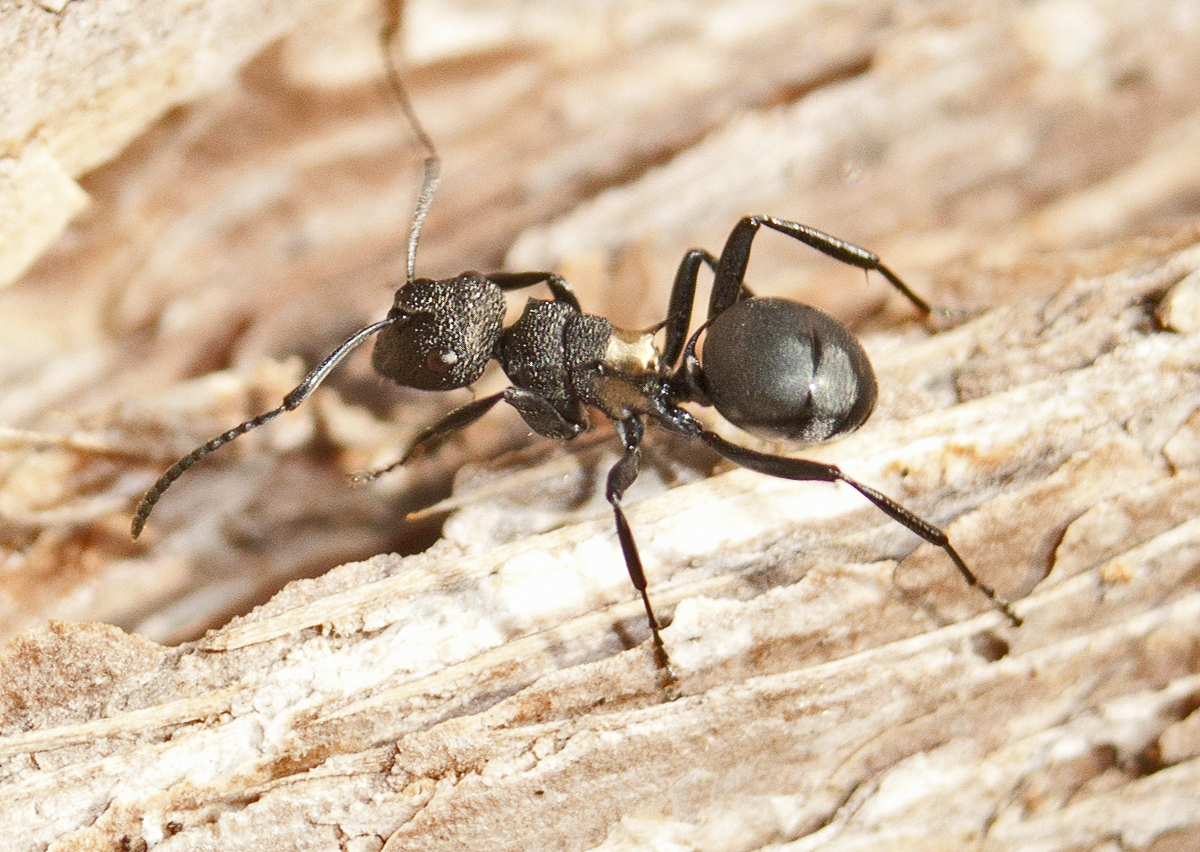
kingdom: Animalia
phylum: Arthropoda
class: Insecta
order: Hymenoptera
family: Formicidae
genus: Polyrhachis
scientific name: Polyrhachis machaon
